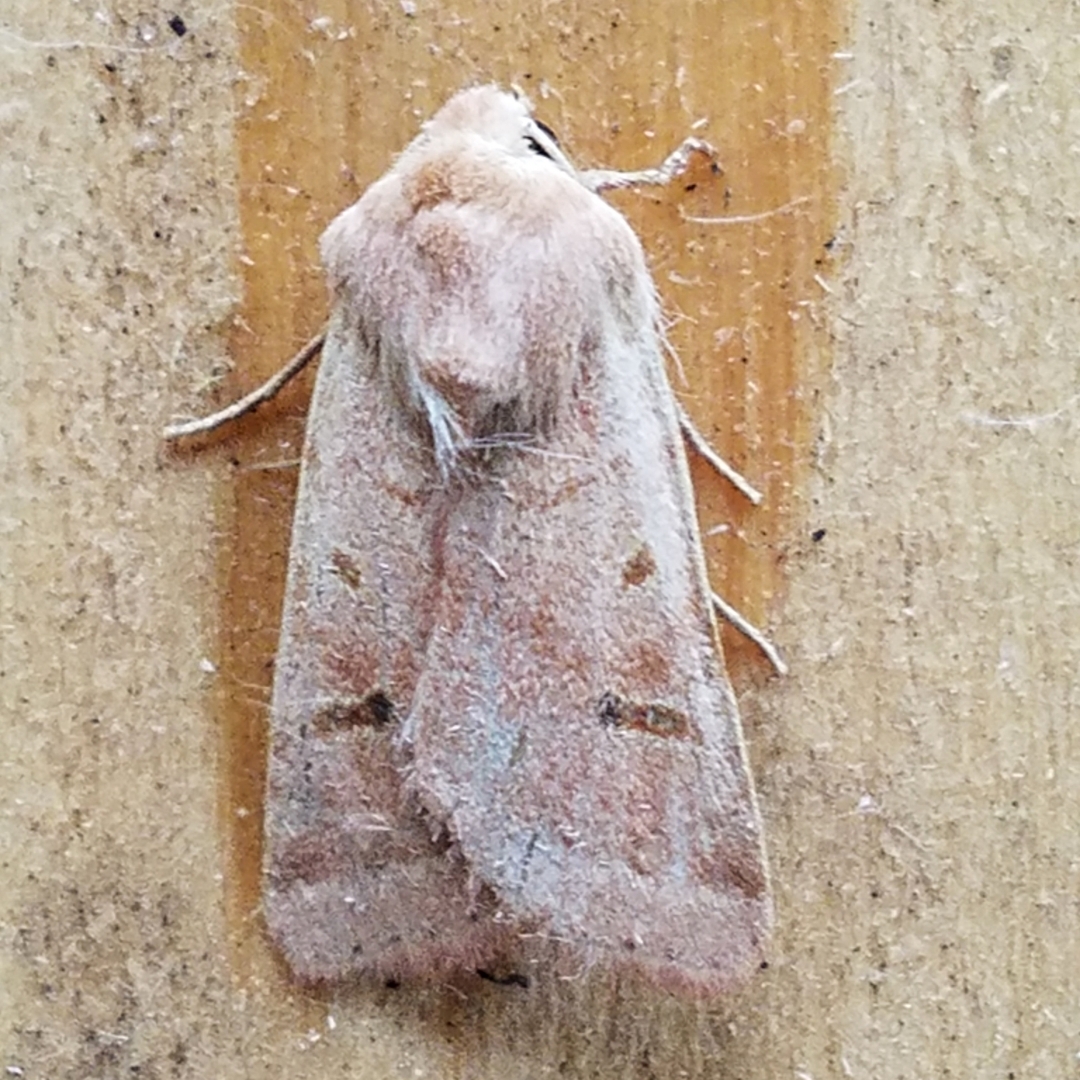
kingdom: Animalia
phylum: Arthropoda
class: Insecta
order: Lepidoptera
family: Noctuidae
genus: Dichagyris
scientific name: Dichagyris variabilis
